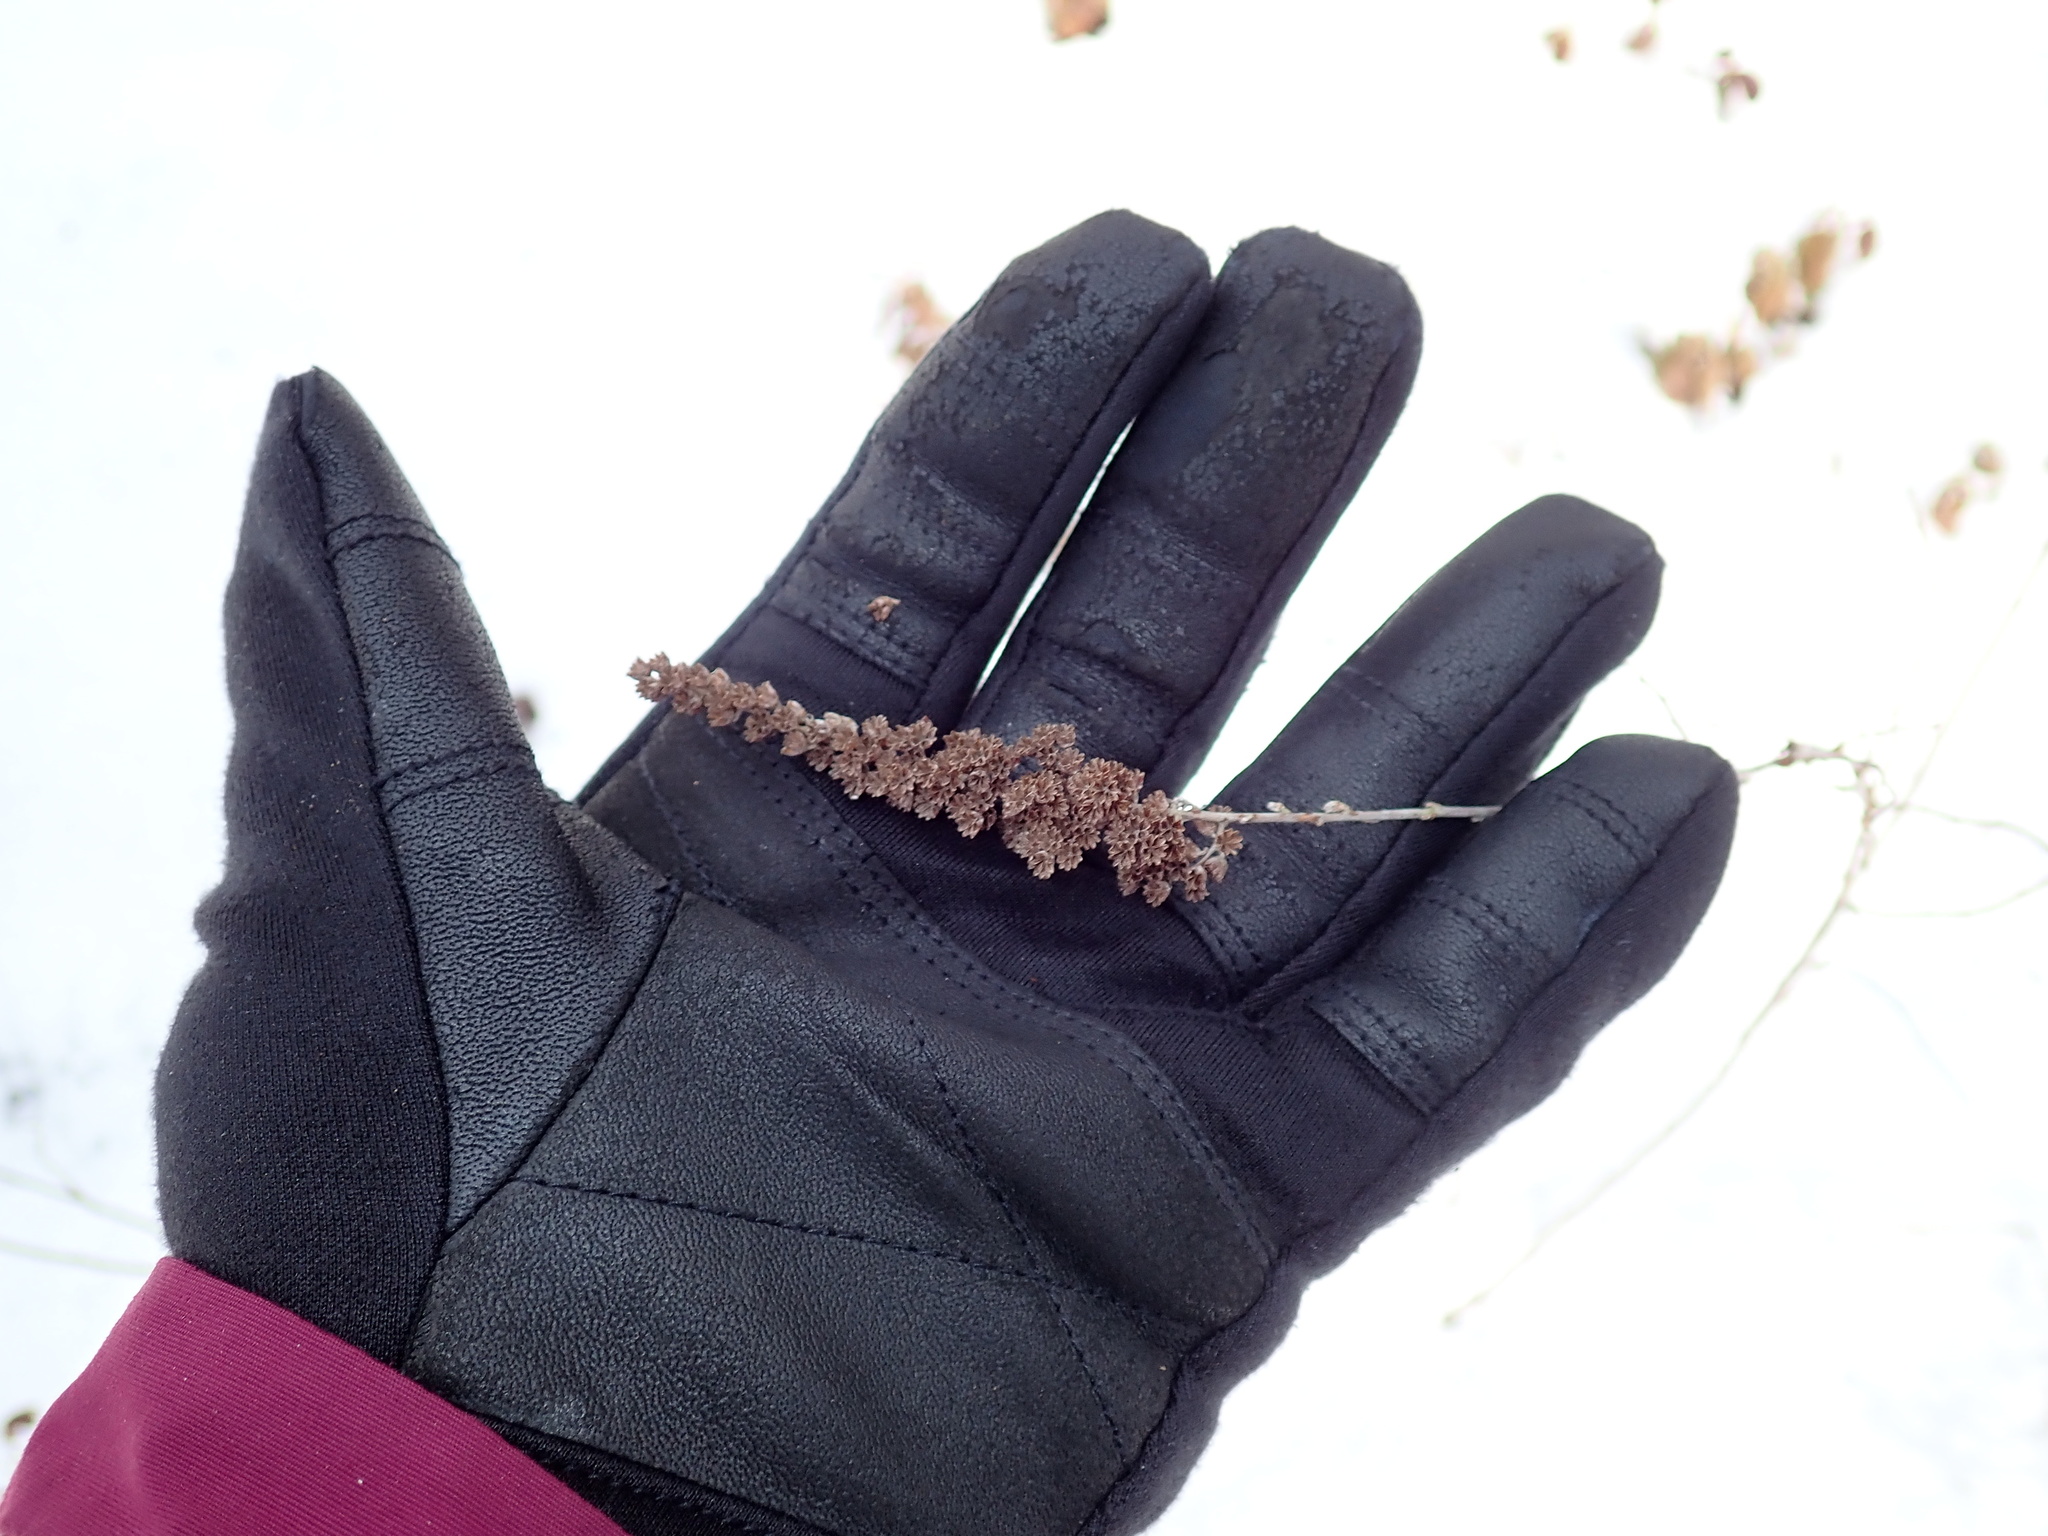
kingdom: Plantae
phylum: Tracheophyta
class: Magnoliopsida
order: Rosales
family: Rosaceae
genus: Spiraea
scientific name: Spiraea tomentosa
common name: Hardhack
